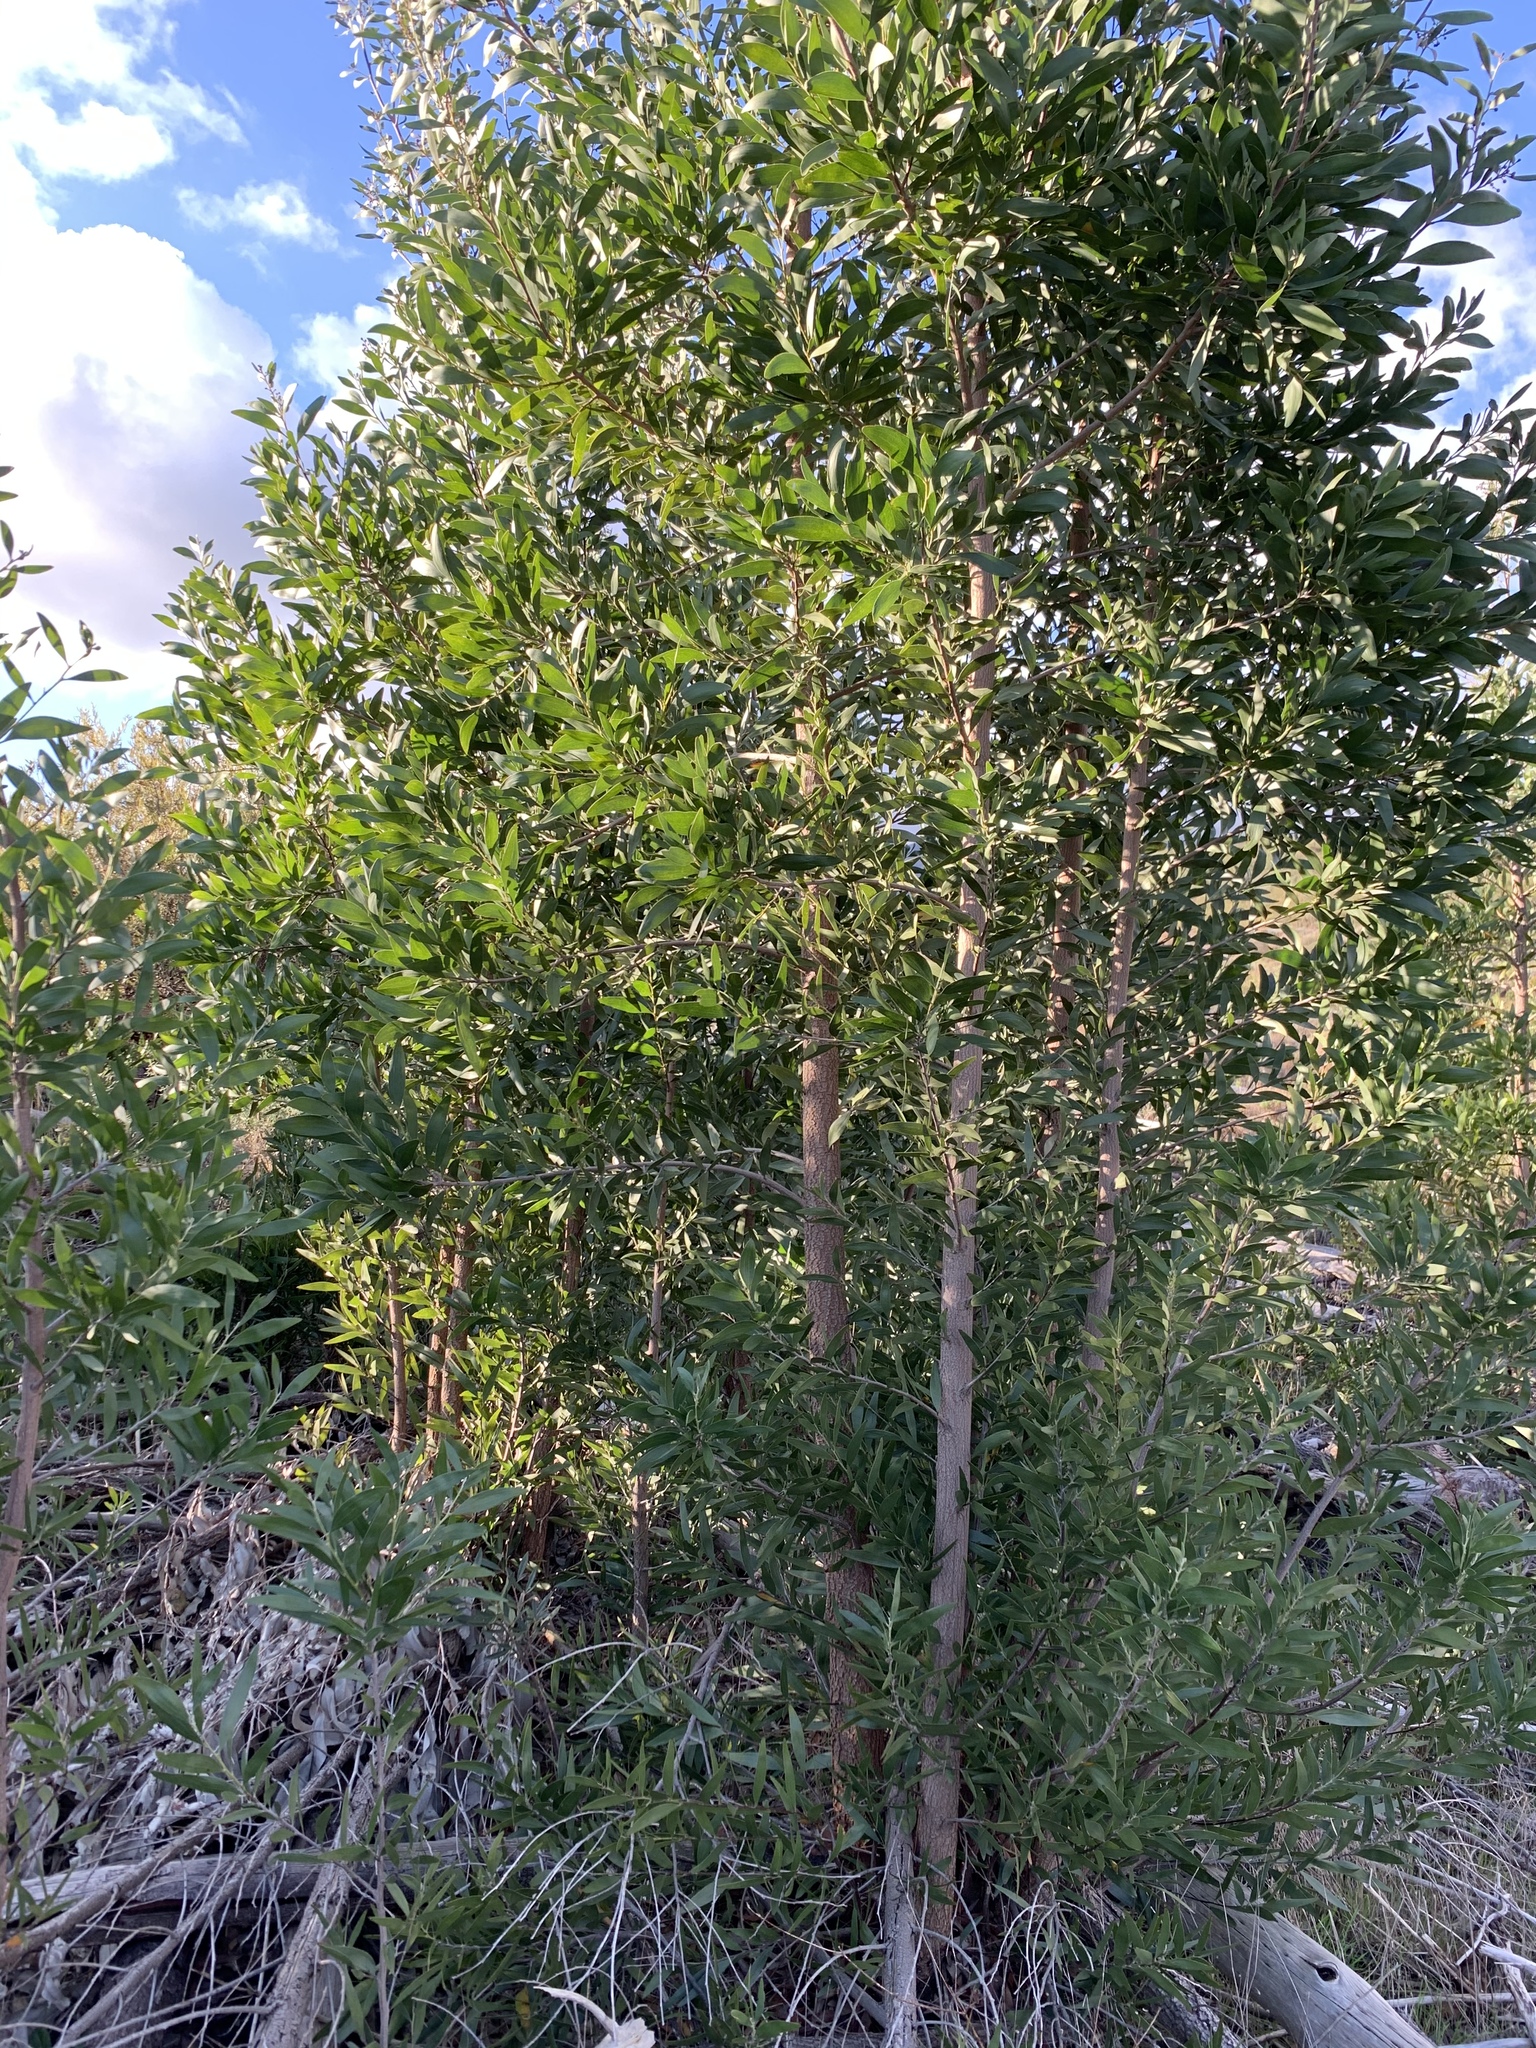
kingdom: Plantae
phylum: Tracheophyta
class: Magnoliopsida
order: Fabales
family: Fabaceae
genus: Acacia
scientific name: Acacia melanoxylon
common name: Blackwood
